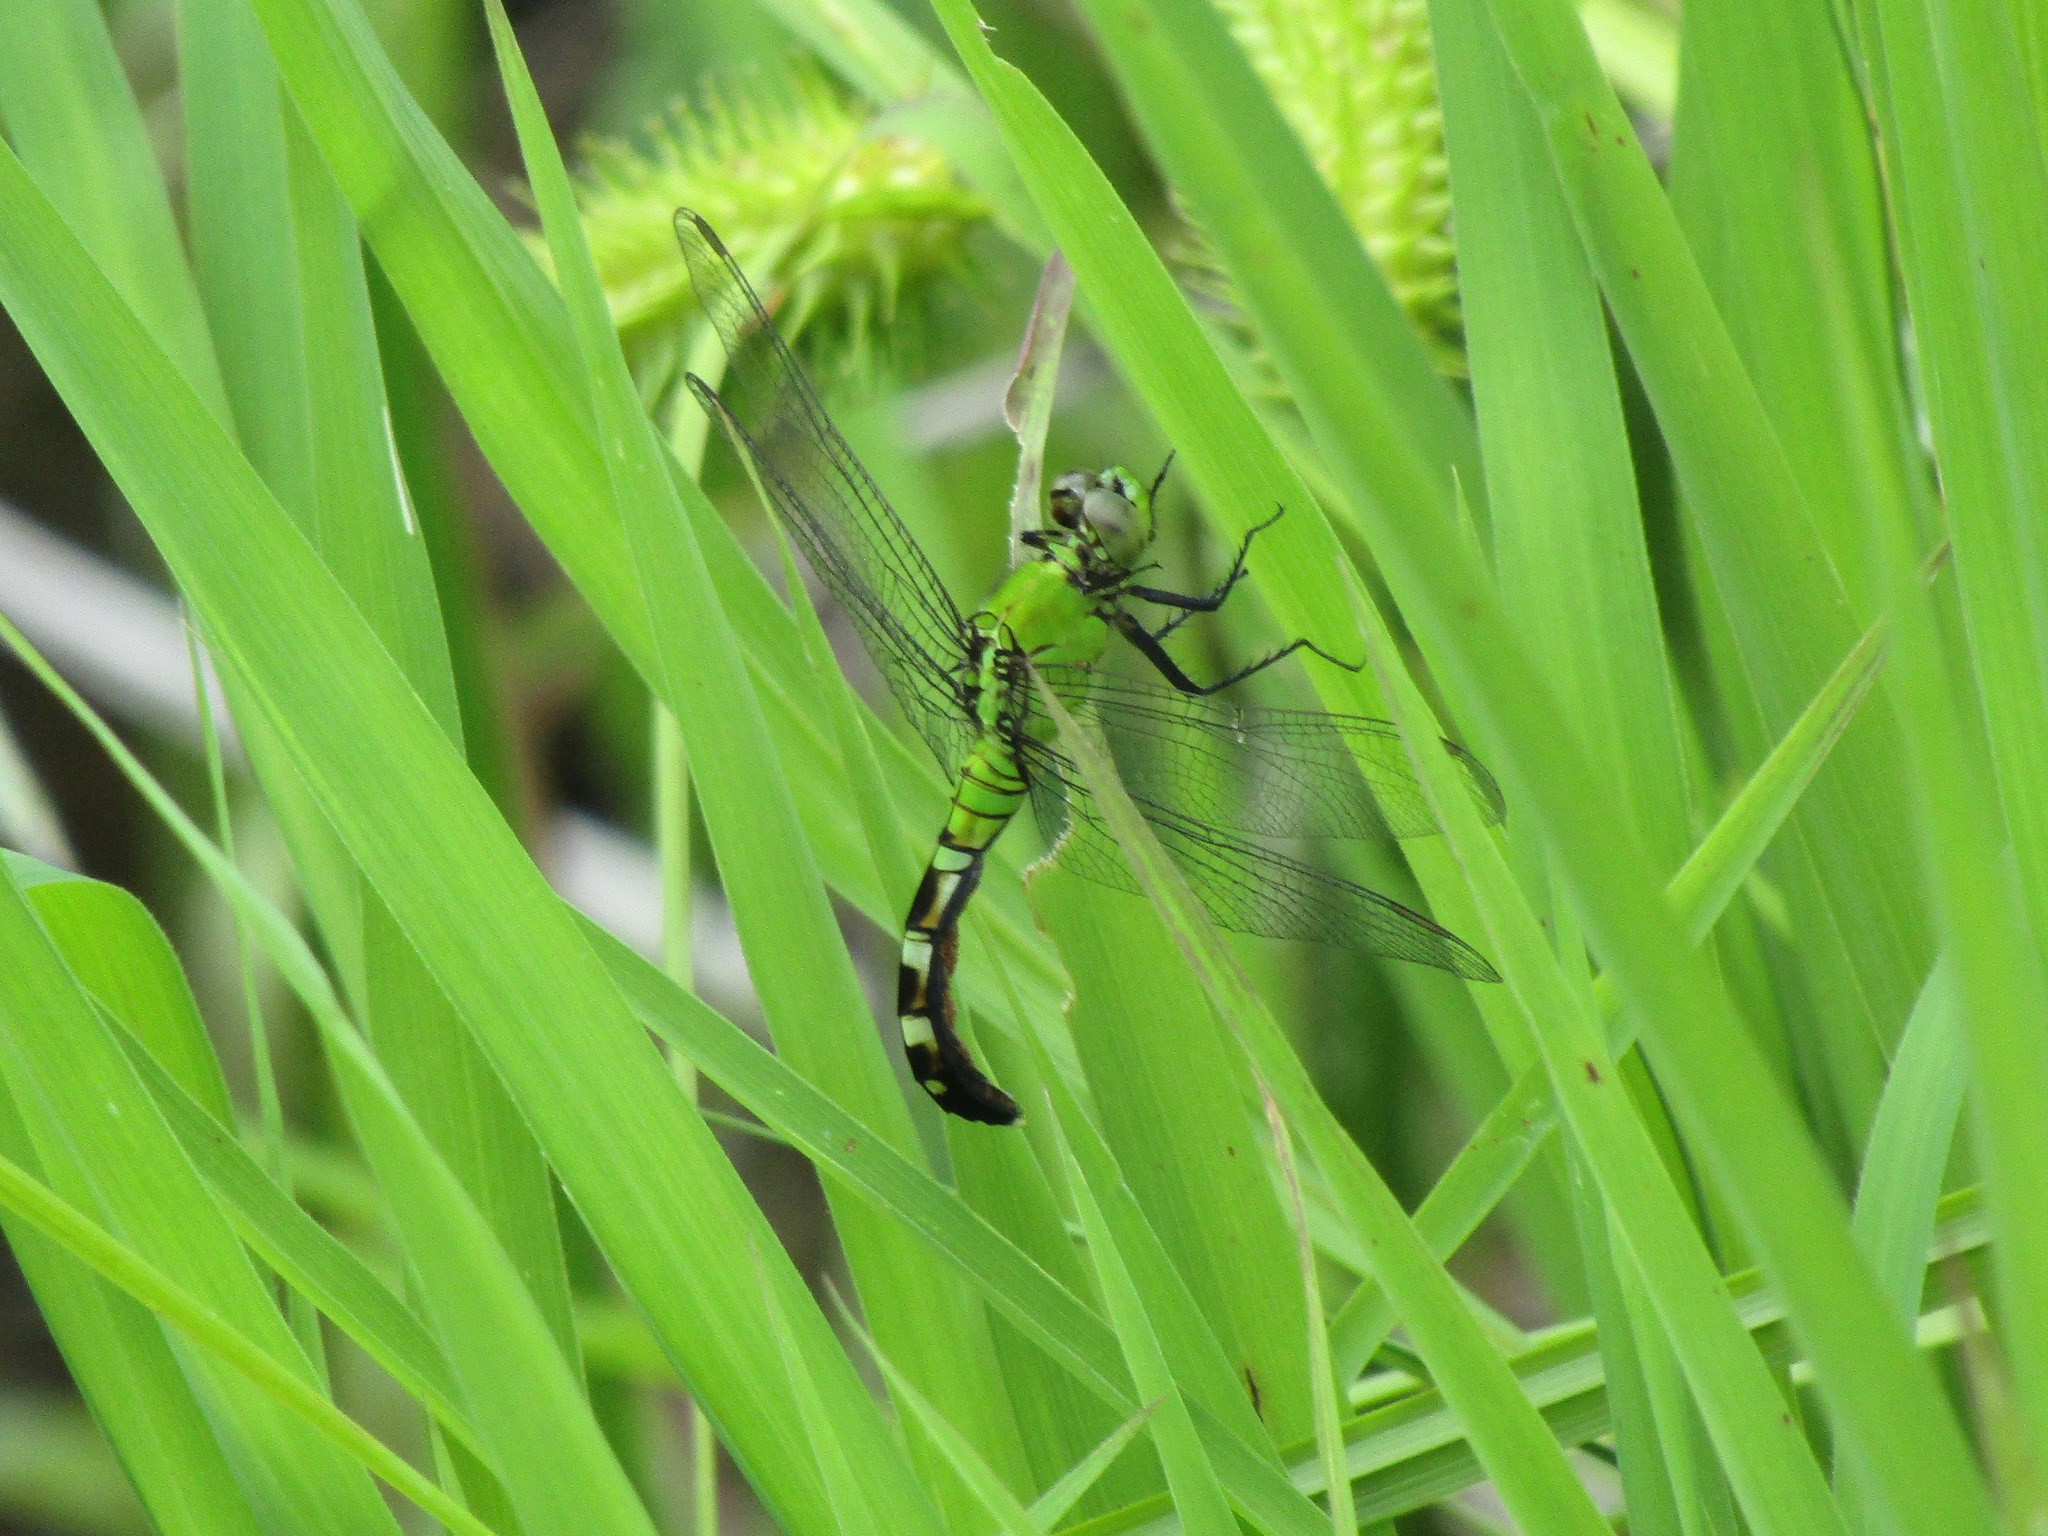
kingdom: Animalia
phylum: Arthropoda
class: Insecta
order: Odonata
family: Libellulidae
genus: Erythemis
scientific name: Erythemis simplicicollis
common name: Eastern pondhawk
